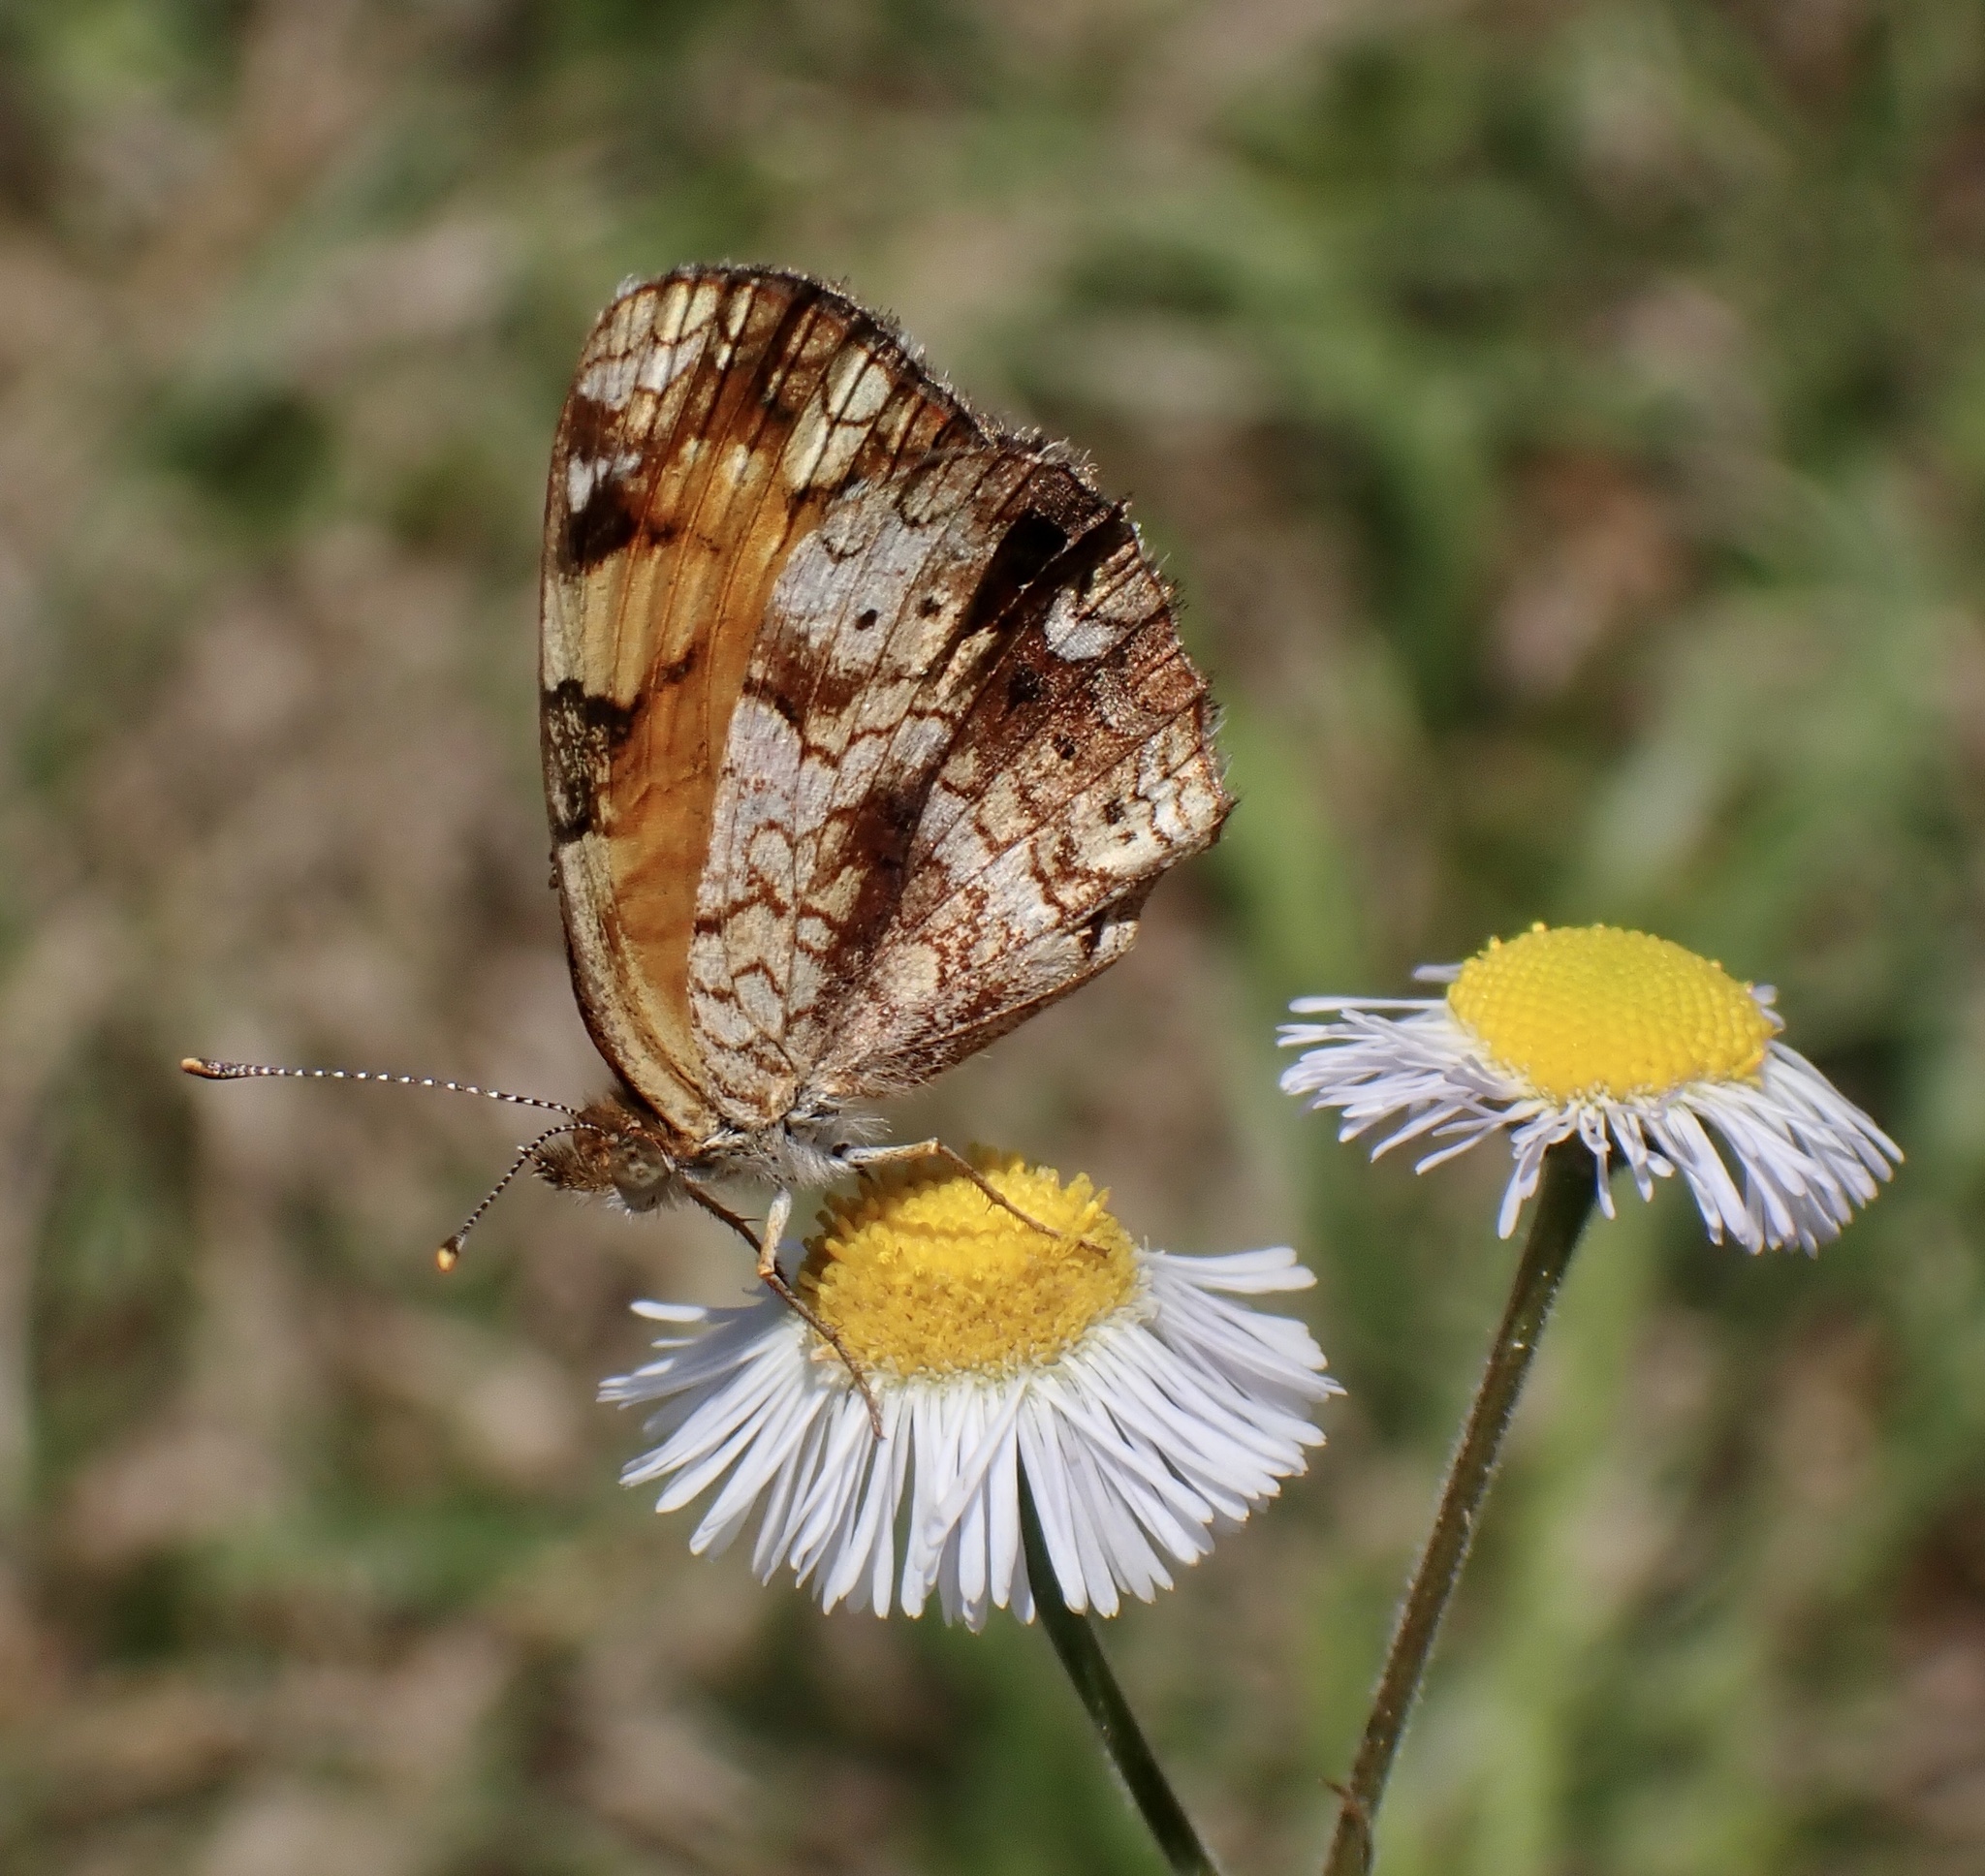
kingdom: Animalia
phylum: Arthropoda
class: Insecta
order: Lepidoptera
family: Nymphalidae
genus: Phyciodes
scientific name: Phyciodes tharos
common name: Pearl crescent
